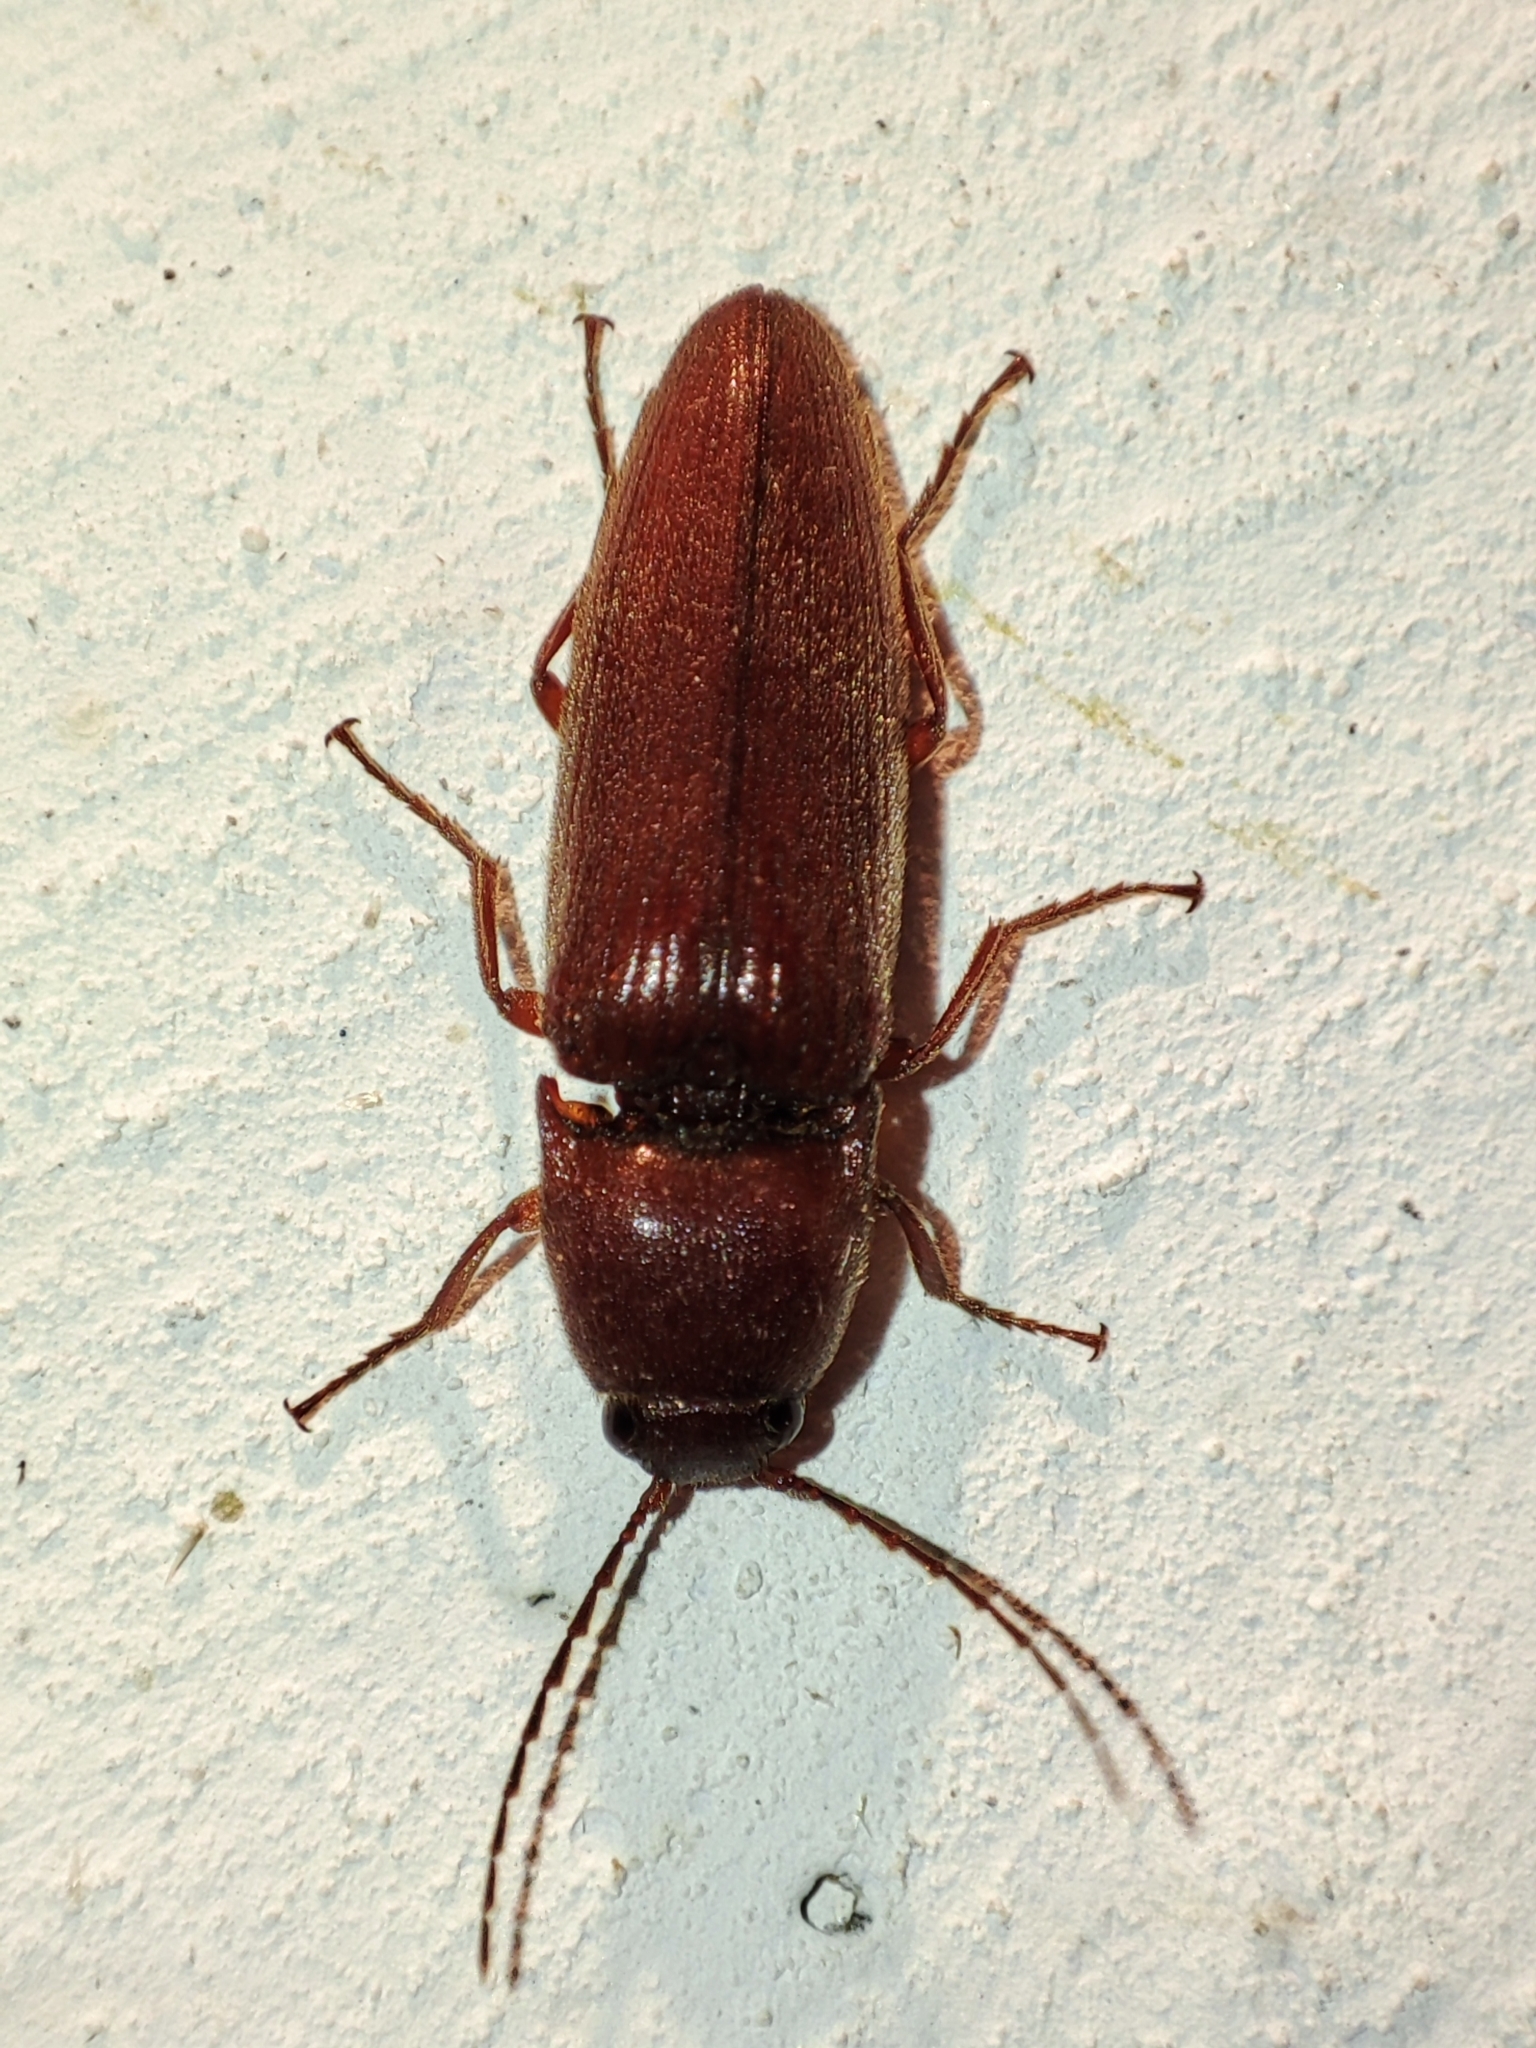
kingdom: Animalia
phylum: Arthropoda
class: Insecta
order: Coleoptera
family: Elateridae
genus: Melanotus
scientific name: Melanotus fusciceps
